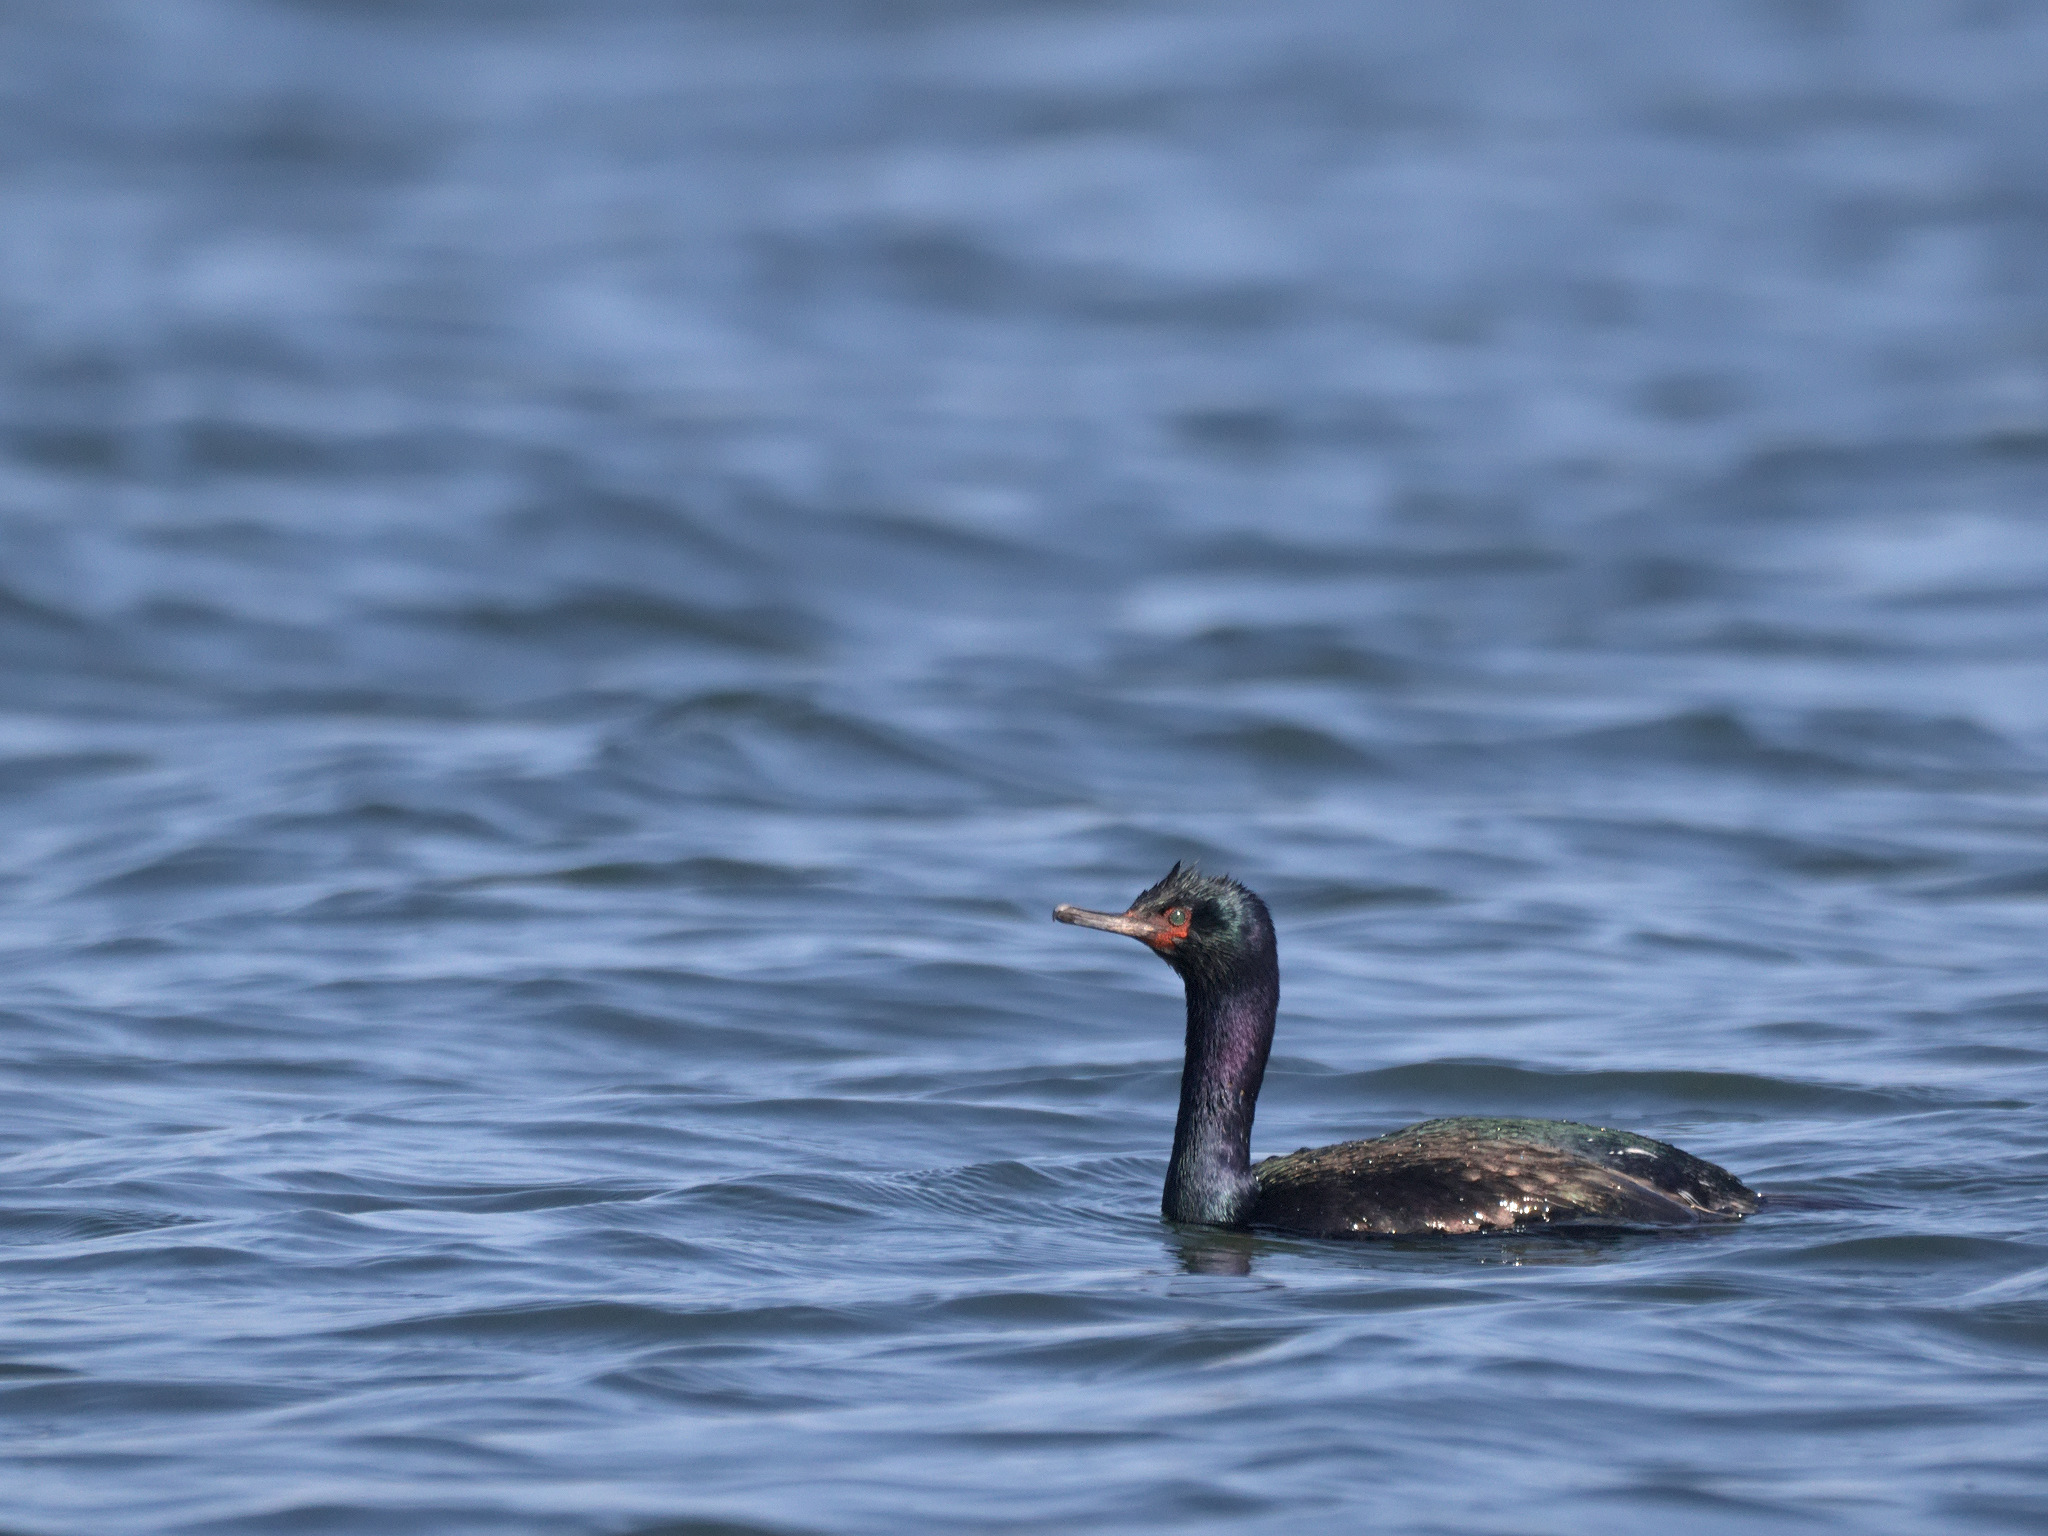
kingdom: Animalia
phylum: Chordata
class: Aves
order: Suliformes
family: Phalacrocoracidae
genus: Phalacrocorax
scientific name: Phalacrocorax pelagicus
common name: Pelagic cormorant
